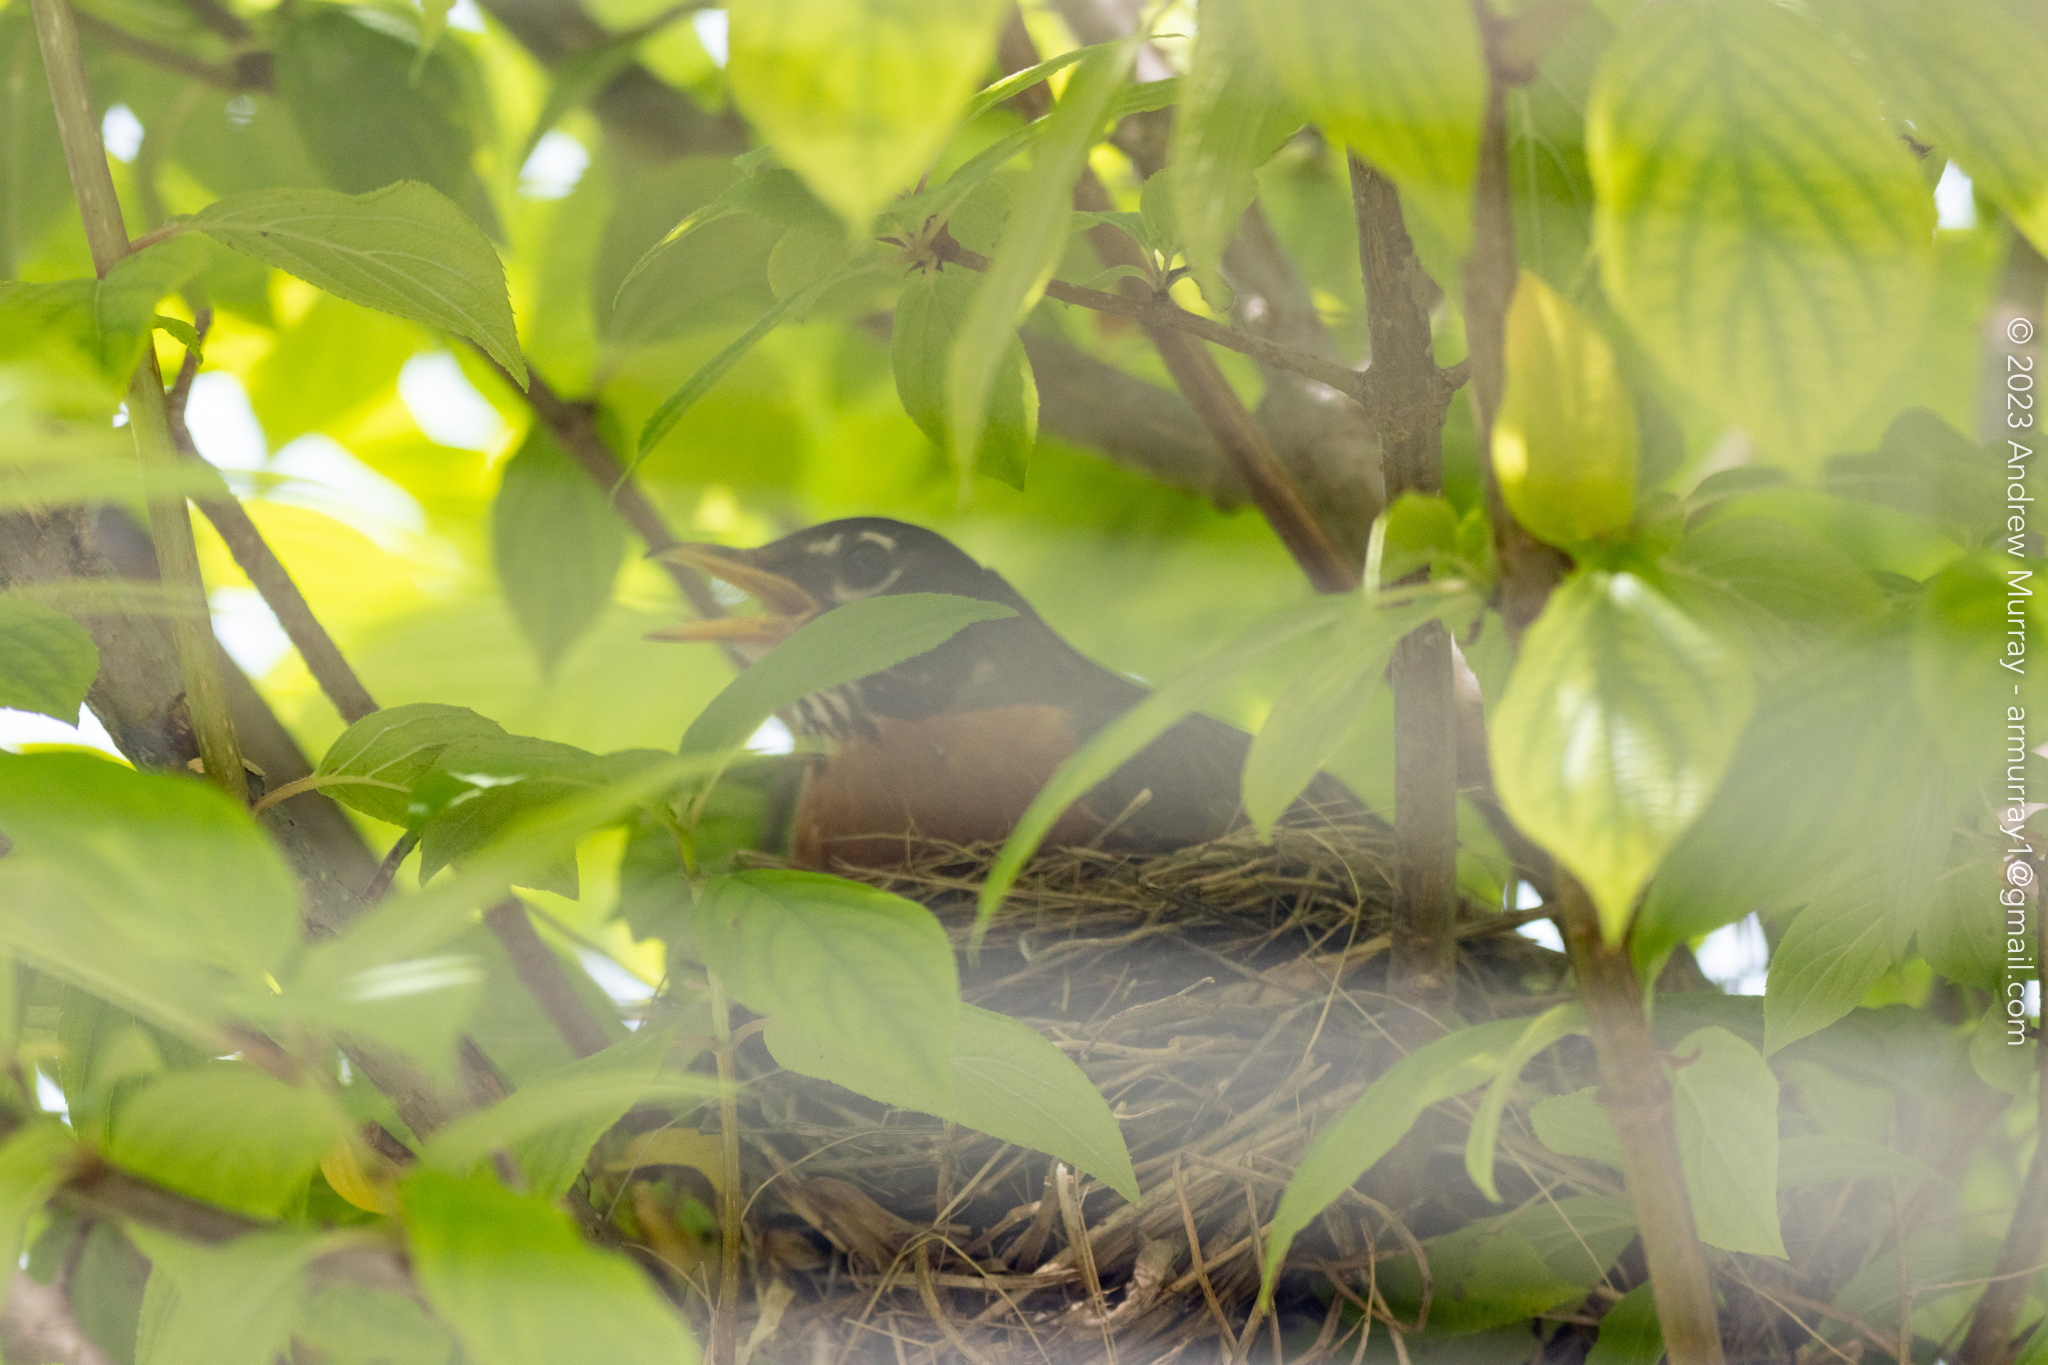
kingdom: Animalia
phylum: Chordata
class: Aves
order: Passeriformes
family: Turdidae
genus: Turdus
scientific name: Turdus migratorius
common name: American robin
